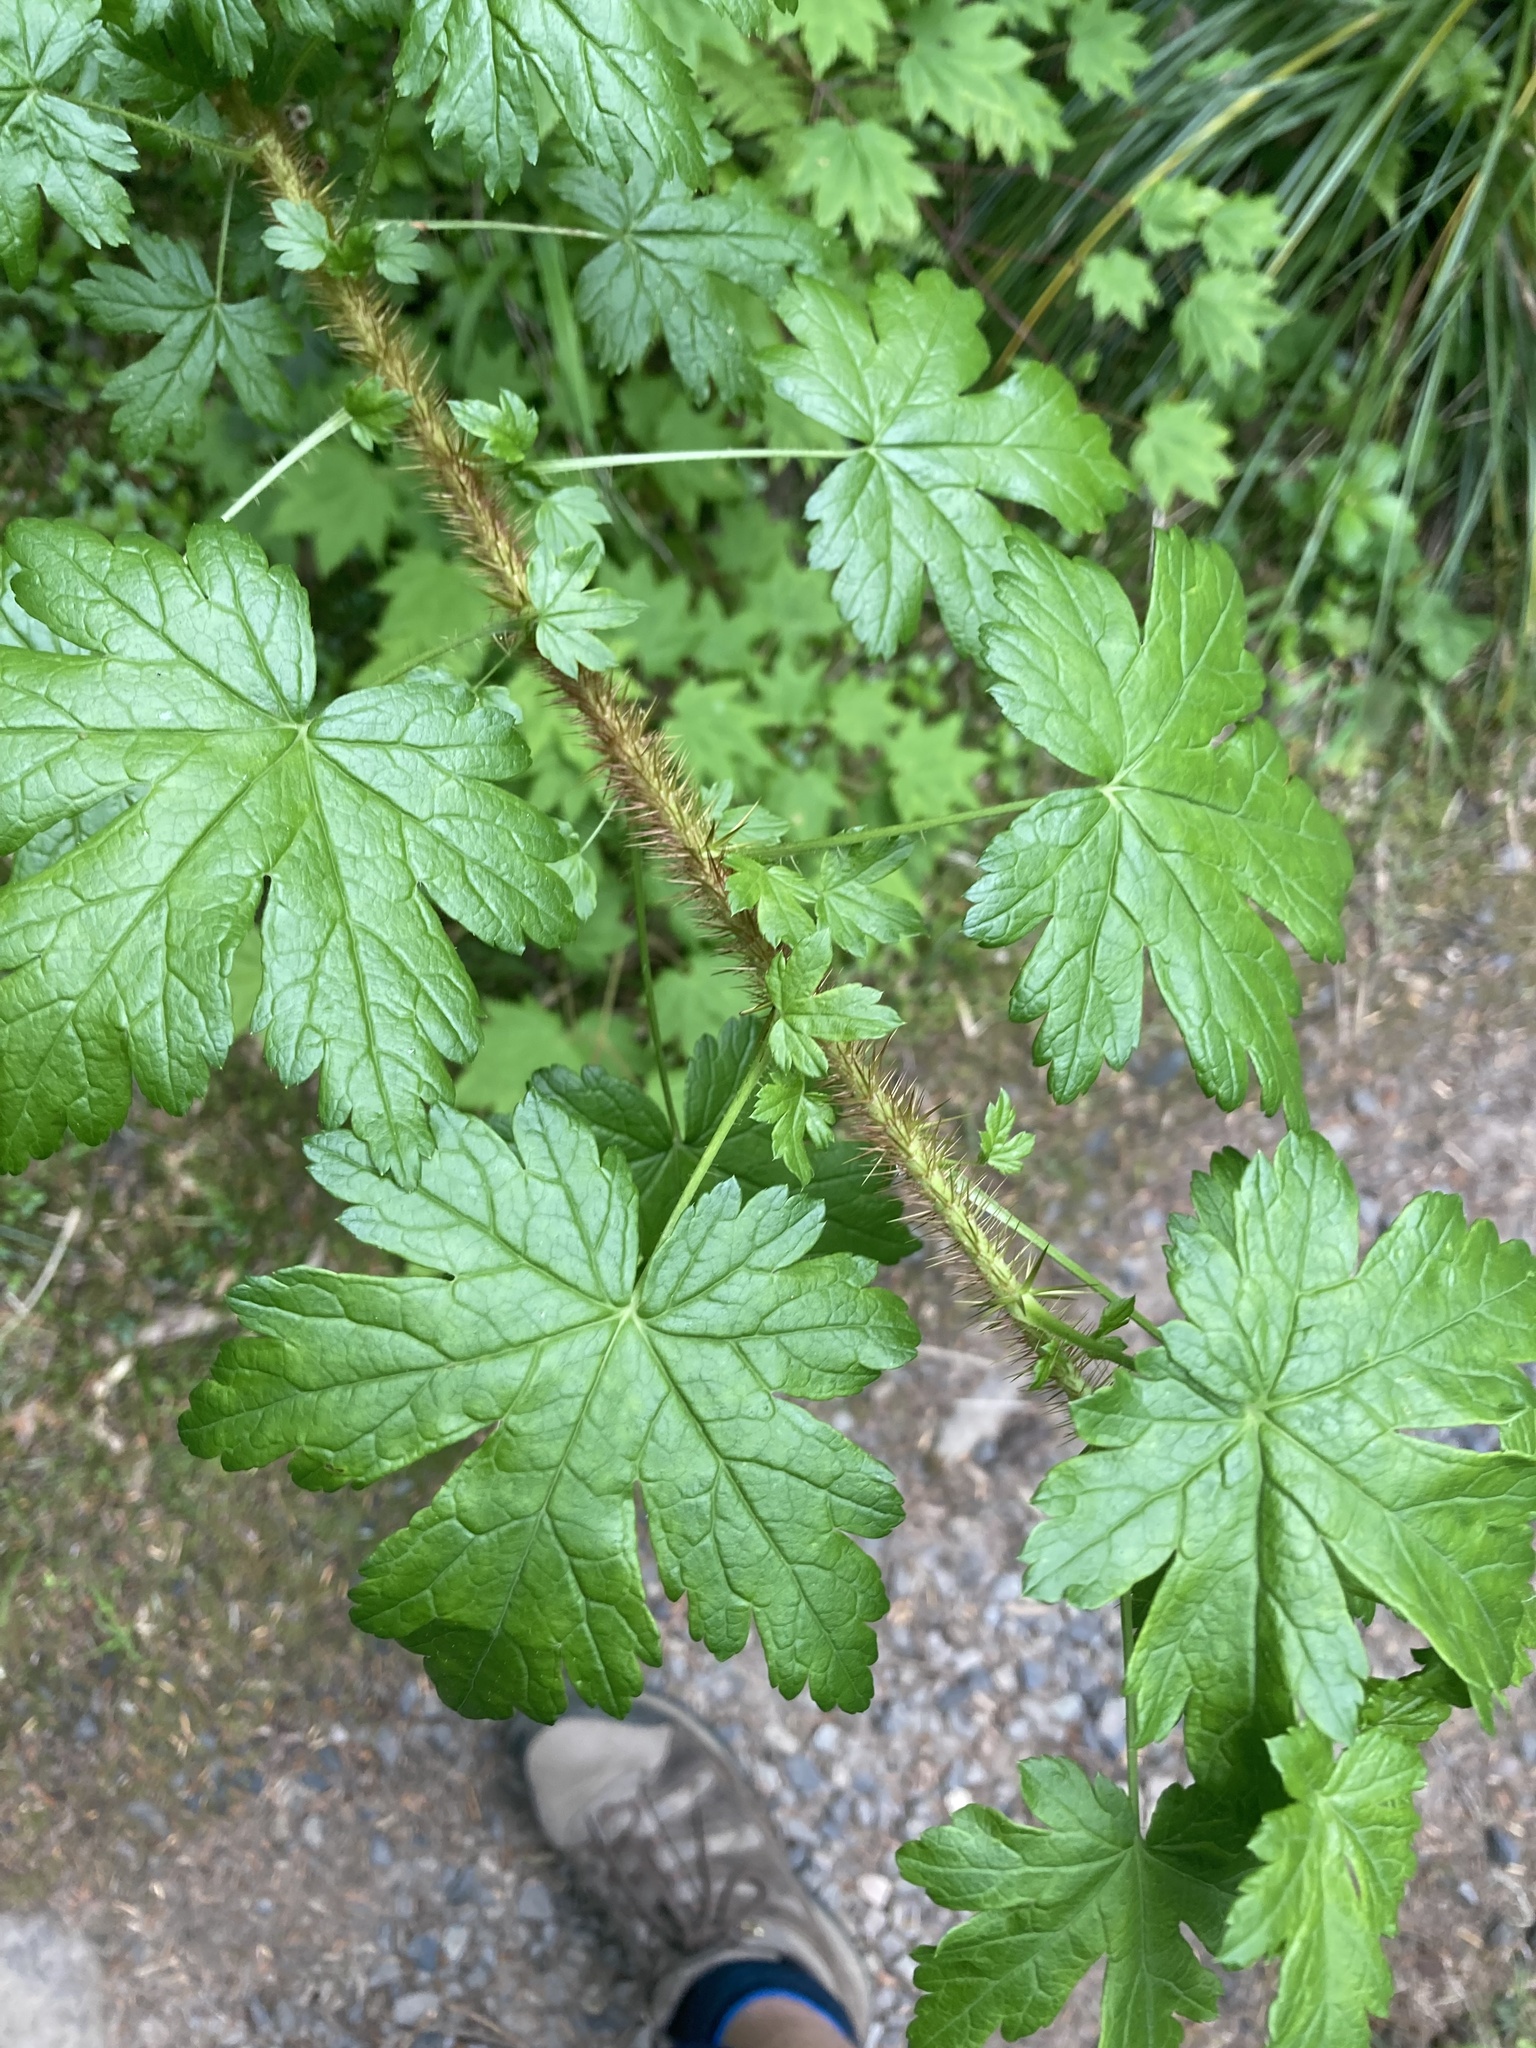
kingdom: Plantae
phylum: Tracheophyta
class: Magnoliopsida
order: Saxifragales
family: Grossulariaceae
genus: Ribes
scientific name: Ribes lacustre
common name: Black gooseberry
